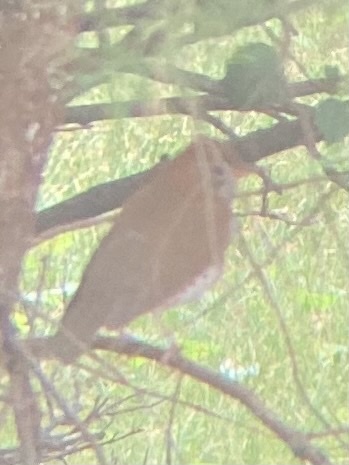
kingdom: Animalia
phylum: Chordata
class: Aves
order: Passeriformes
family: Turdidae
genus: Hylocichla
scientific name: Hylocichla mustelina
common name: Wood thrush
